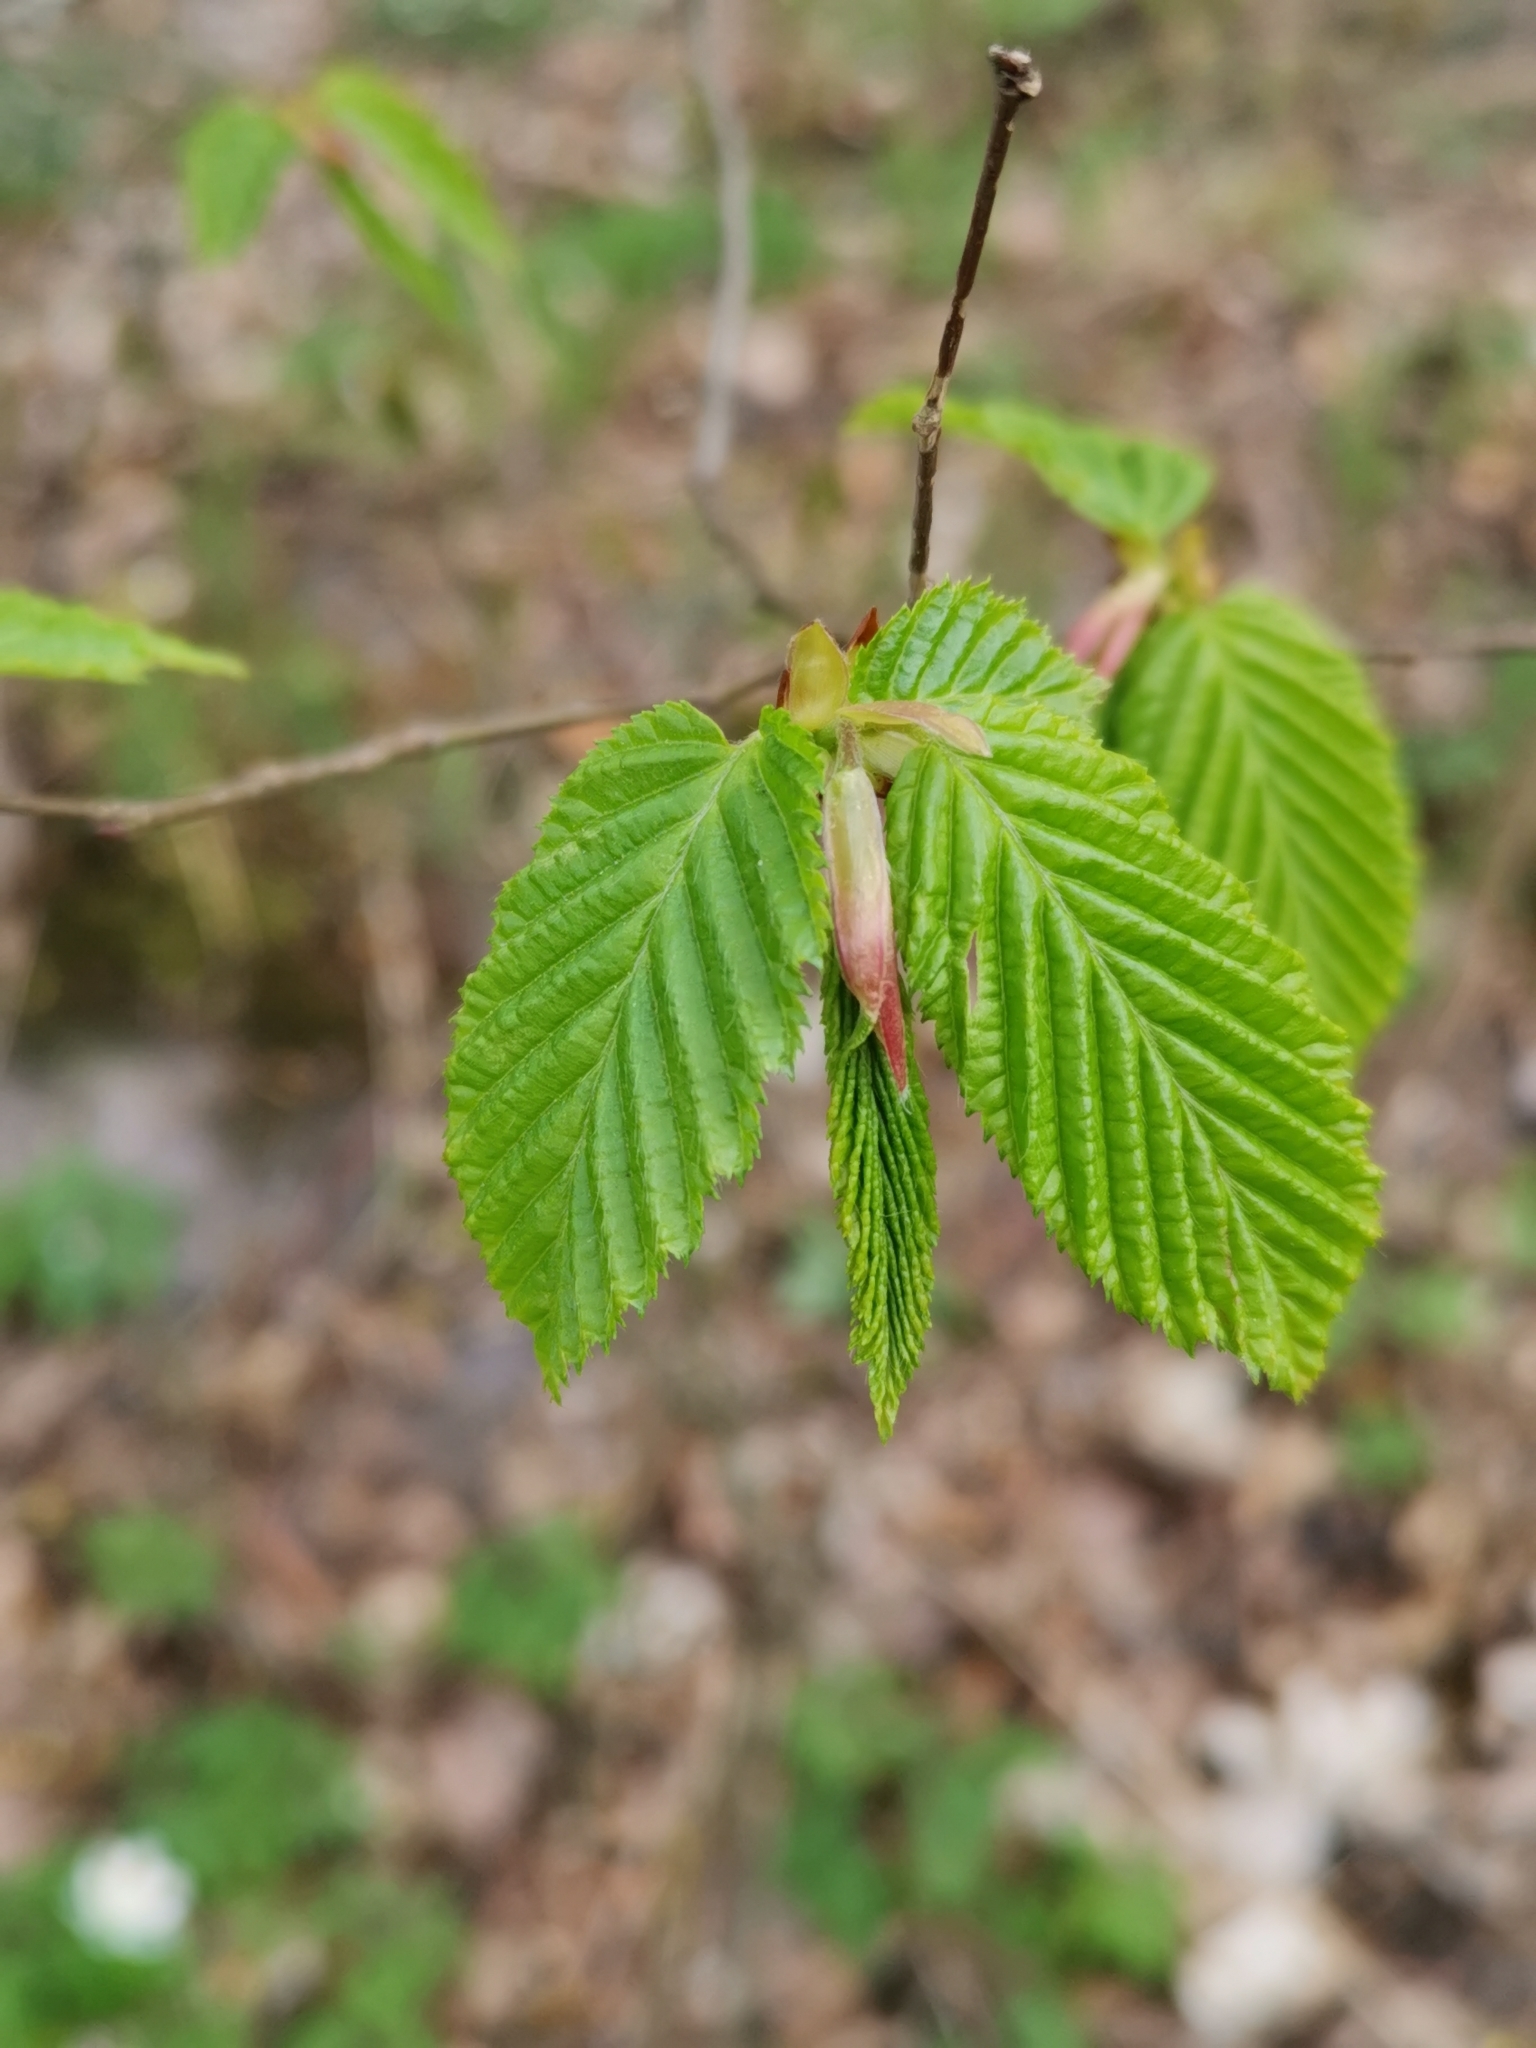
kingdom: Plantae
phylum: Tracheophyta
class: Magnoliopsida
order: Fagales
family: Betulaceae
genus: Carpinus
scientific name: Carpinus betulus
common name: Hornbeam
